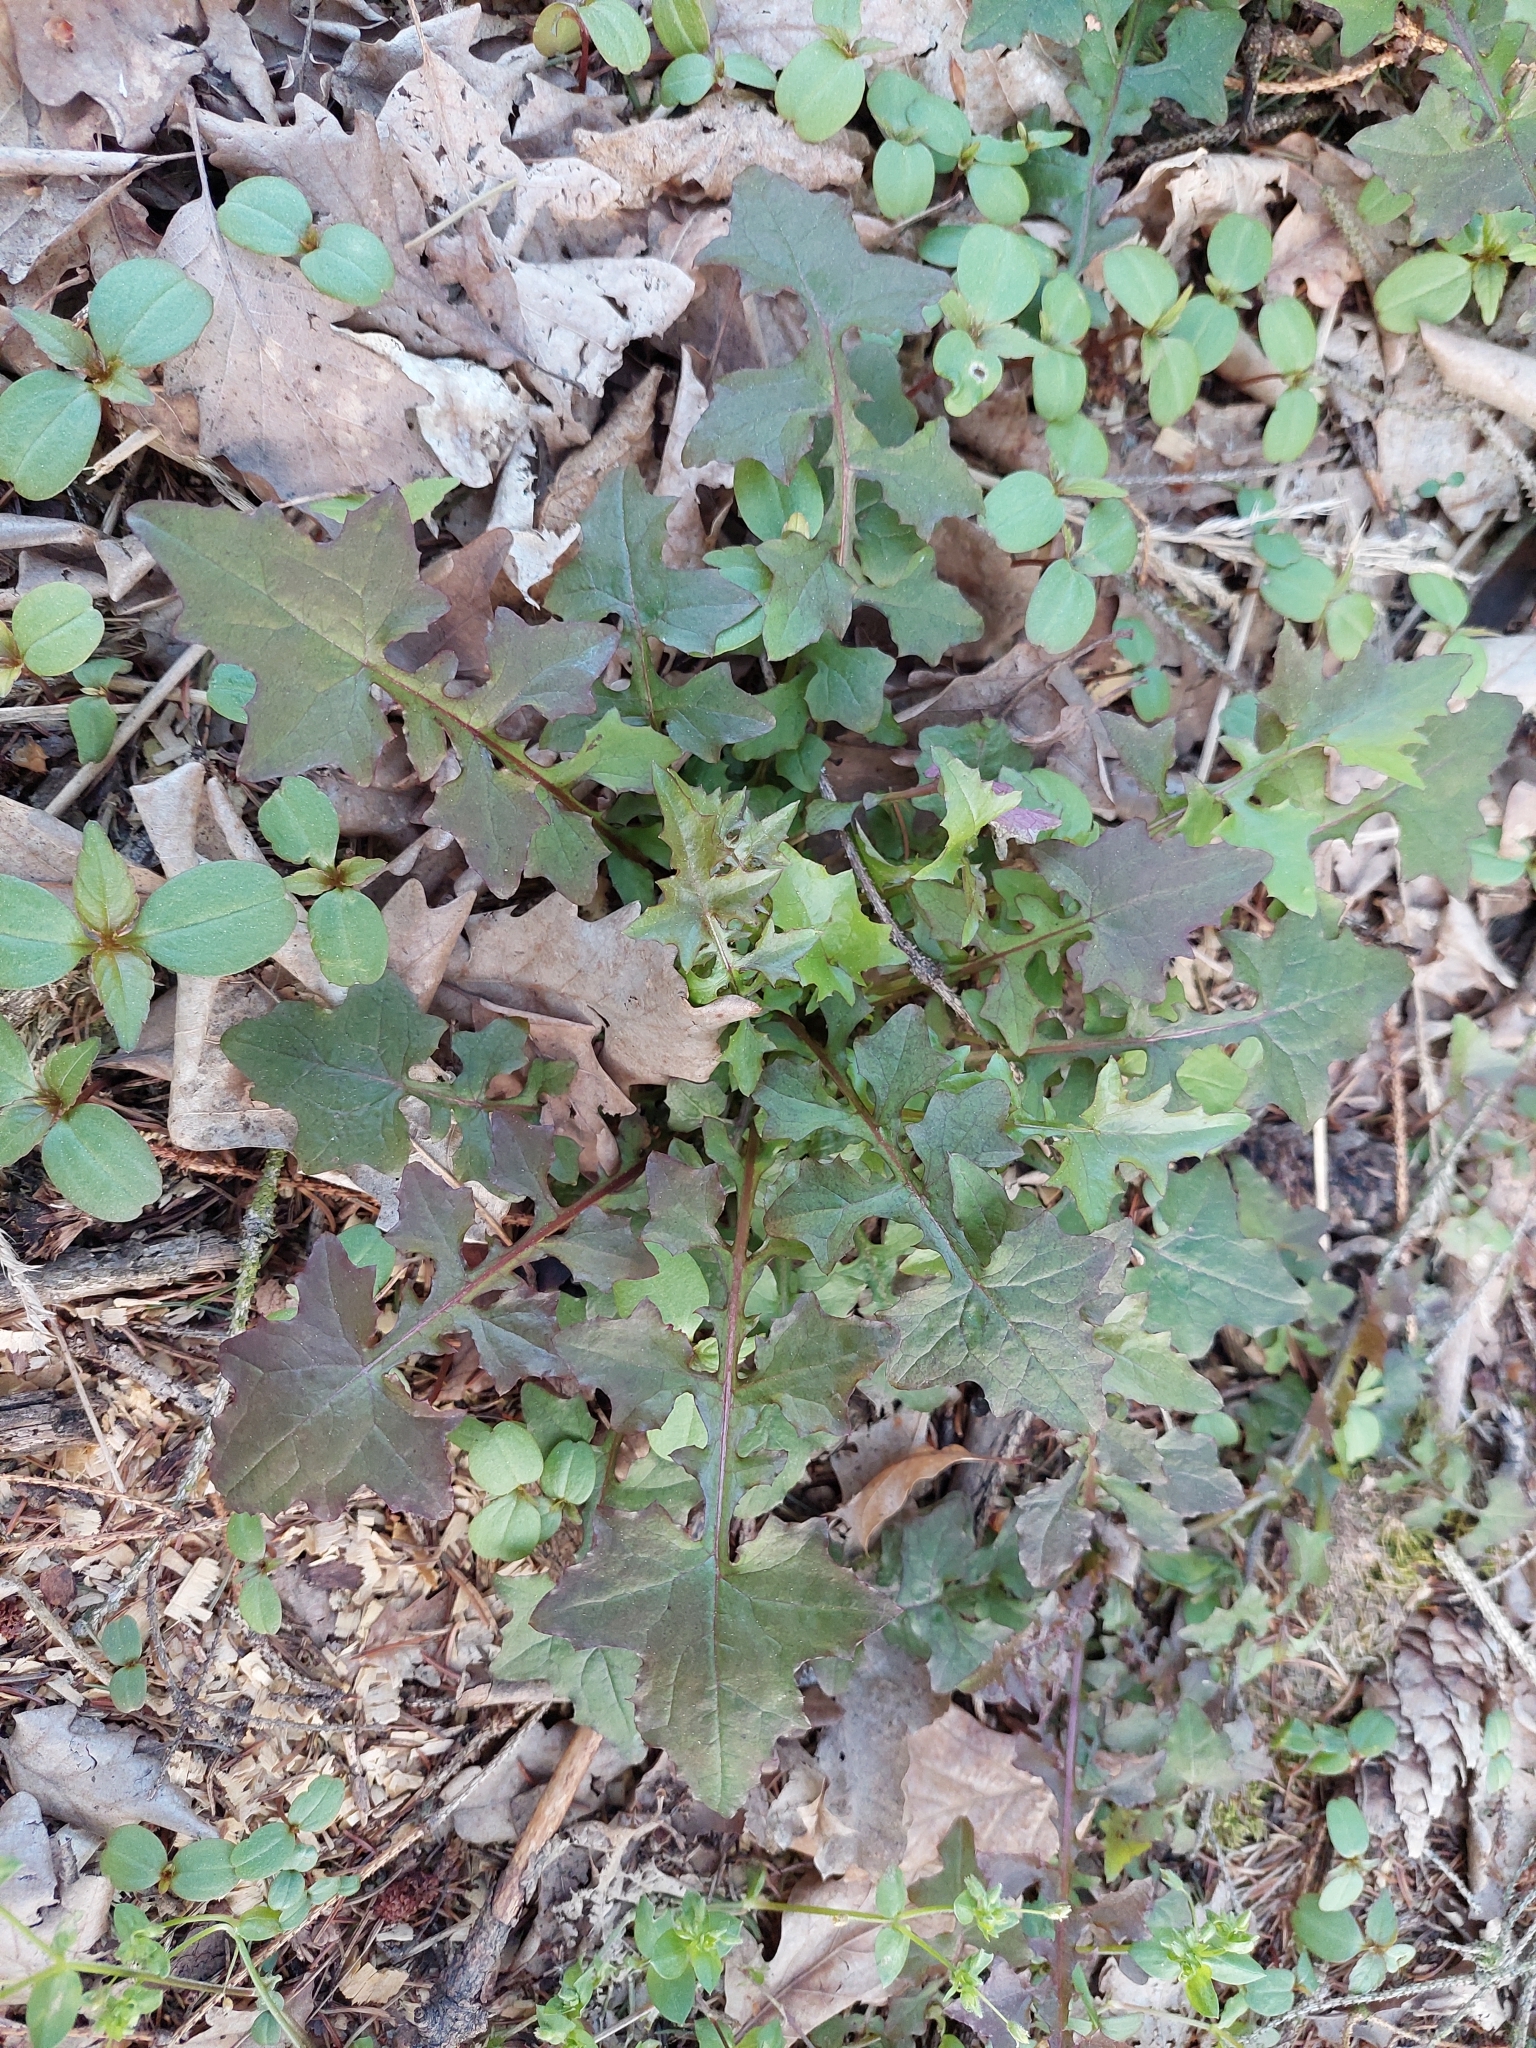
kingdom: Plantae
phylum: Tracheophyta
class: Magnoliopsida
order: Asterales
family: Asteraceae
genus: Mycelis
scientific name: Mycelis muralis
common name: Wall lettuce
